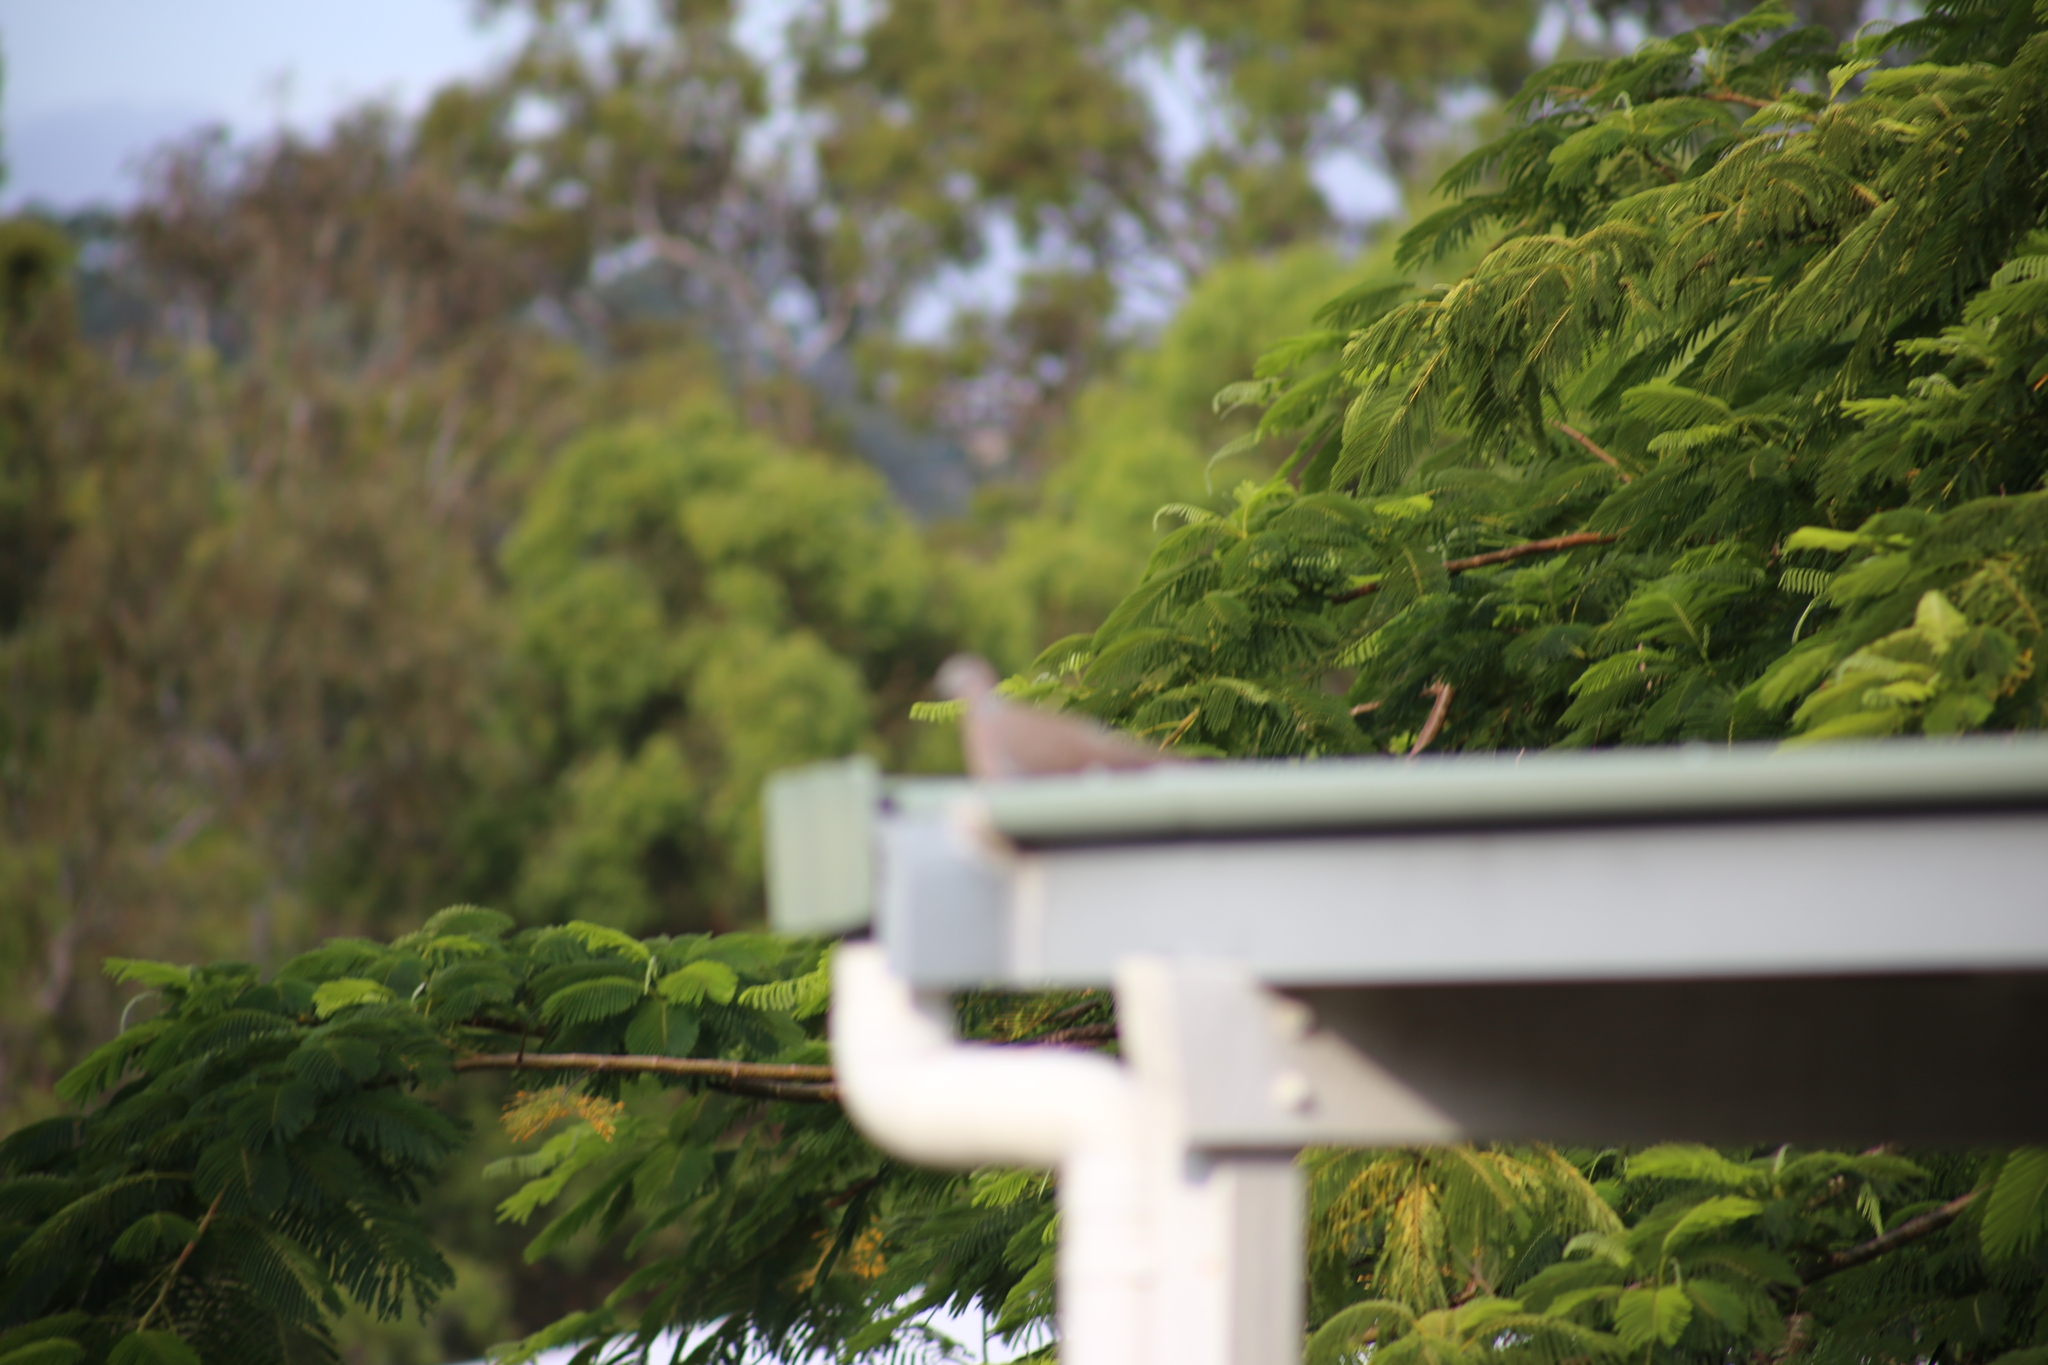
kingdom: Animalia
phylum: Chordata
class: Aves
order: Columbiformes
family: Columbidae
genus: Spilopelia
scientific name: Spilopelia chinensis
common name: Spotted dove
